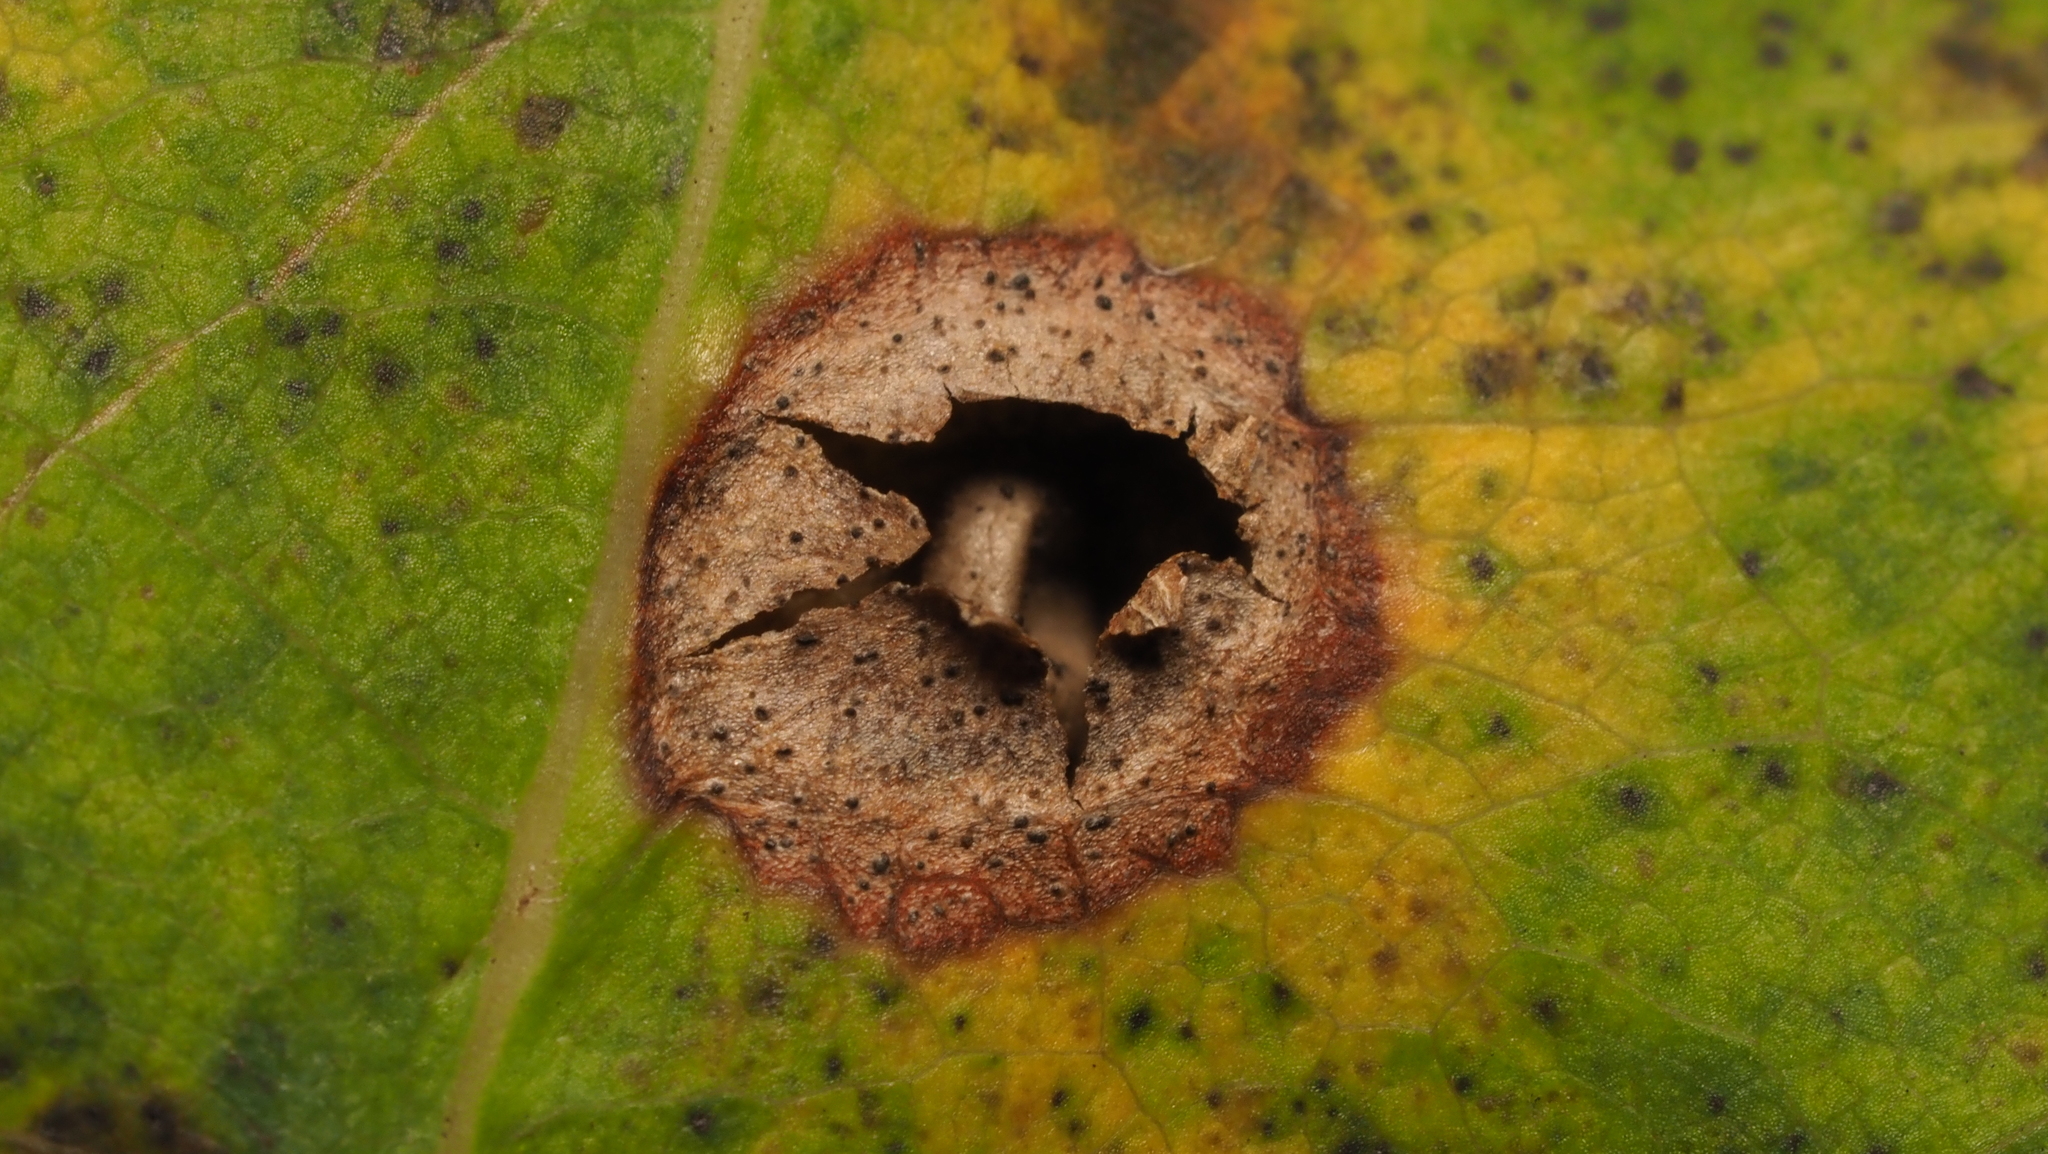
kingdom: Animalia
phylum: Arthropoda
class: Insecta
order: Hymenoptera
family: Cynipidae
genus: Dryocosmus
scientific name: Dryocosmus
